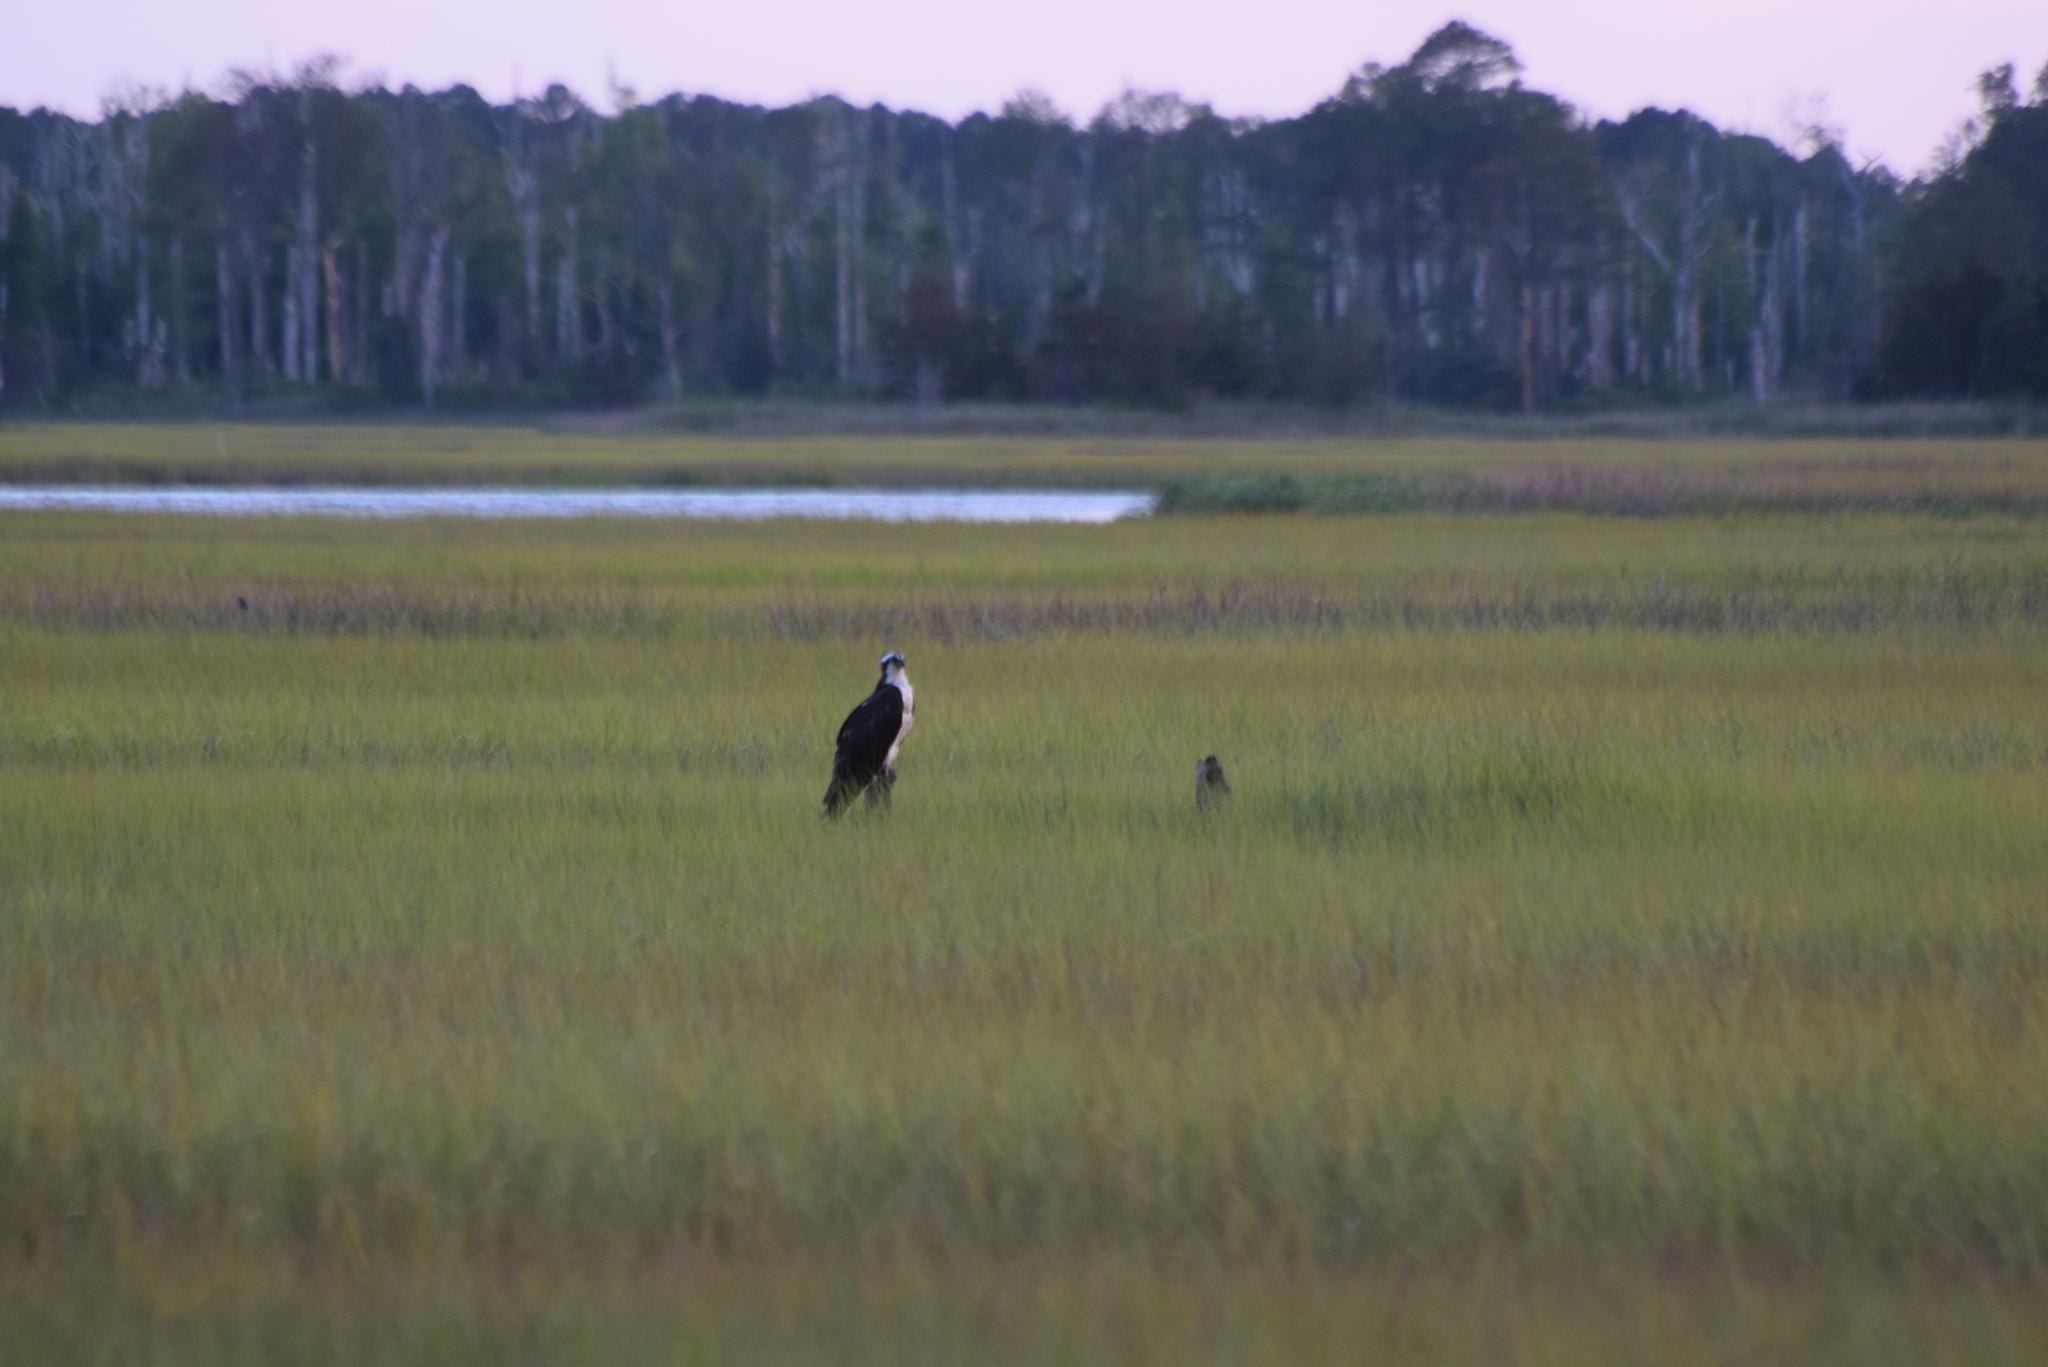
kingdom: Animalia
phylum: Chordata
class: Aves
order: Accipitriformes
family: Pandionidae
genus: Pandion
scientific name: Pandion haliaetus
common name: Osprey
